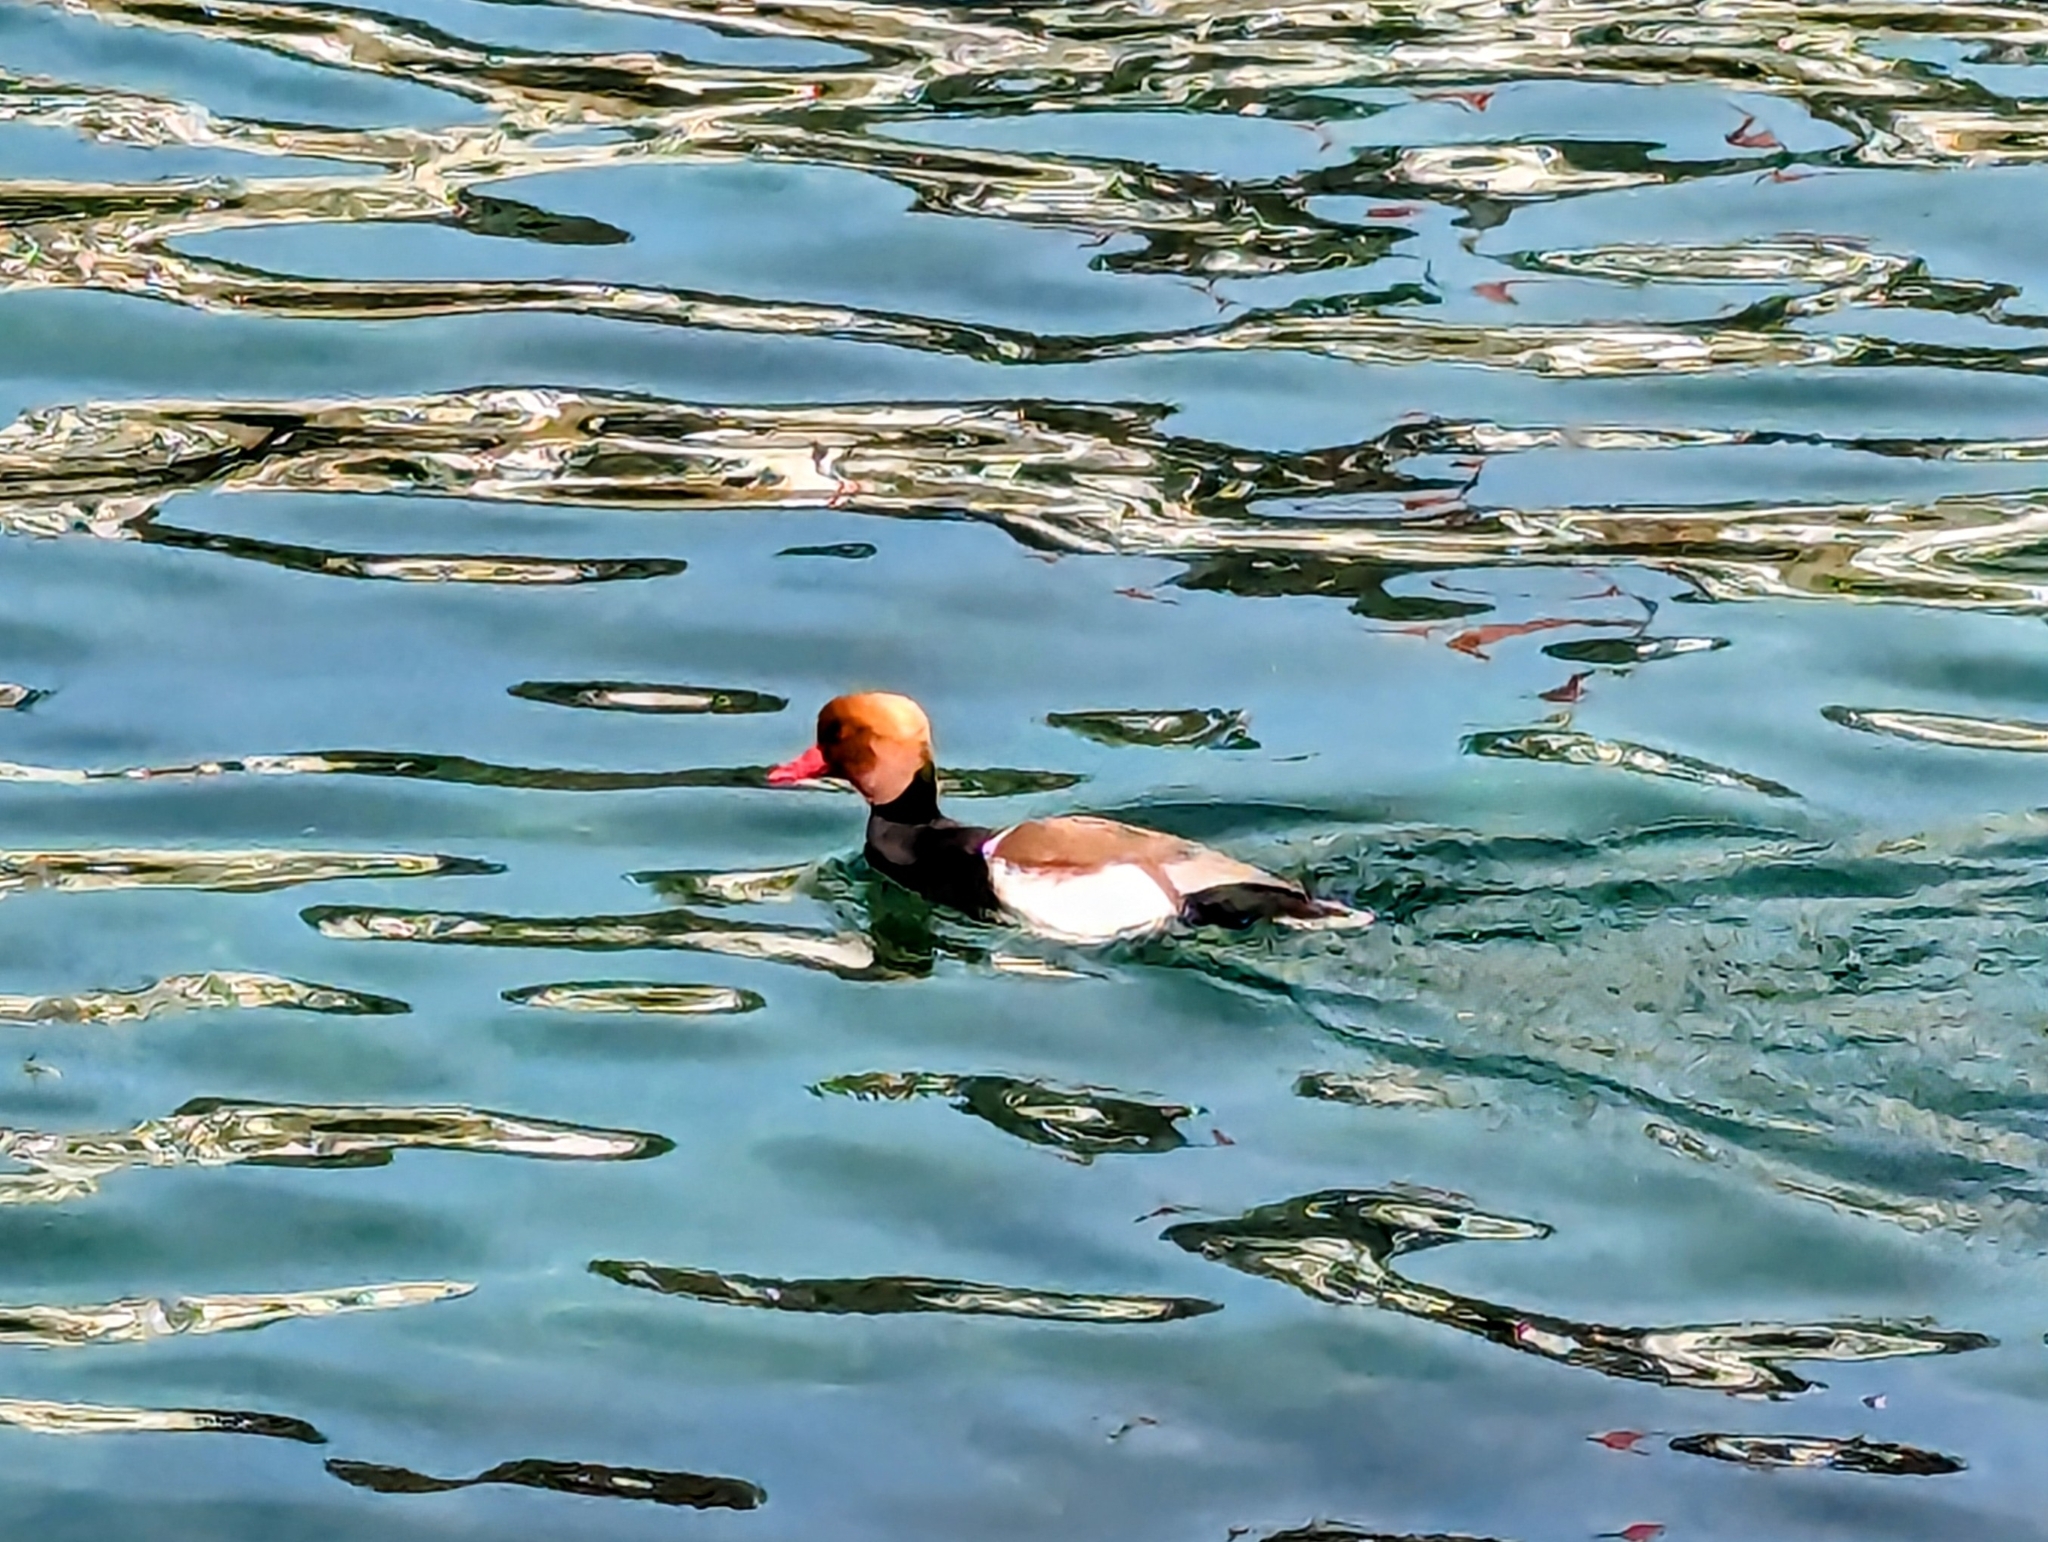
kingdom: Animalia
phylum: Chordata
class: Aves
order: Anseriformes
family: Anatidae
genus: Netta
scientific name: Netta rufina
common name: Red-crested pochard
